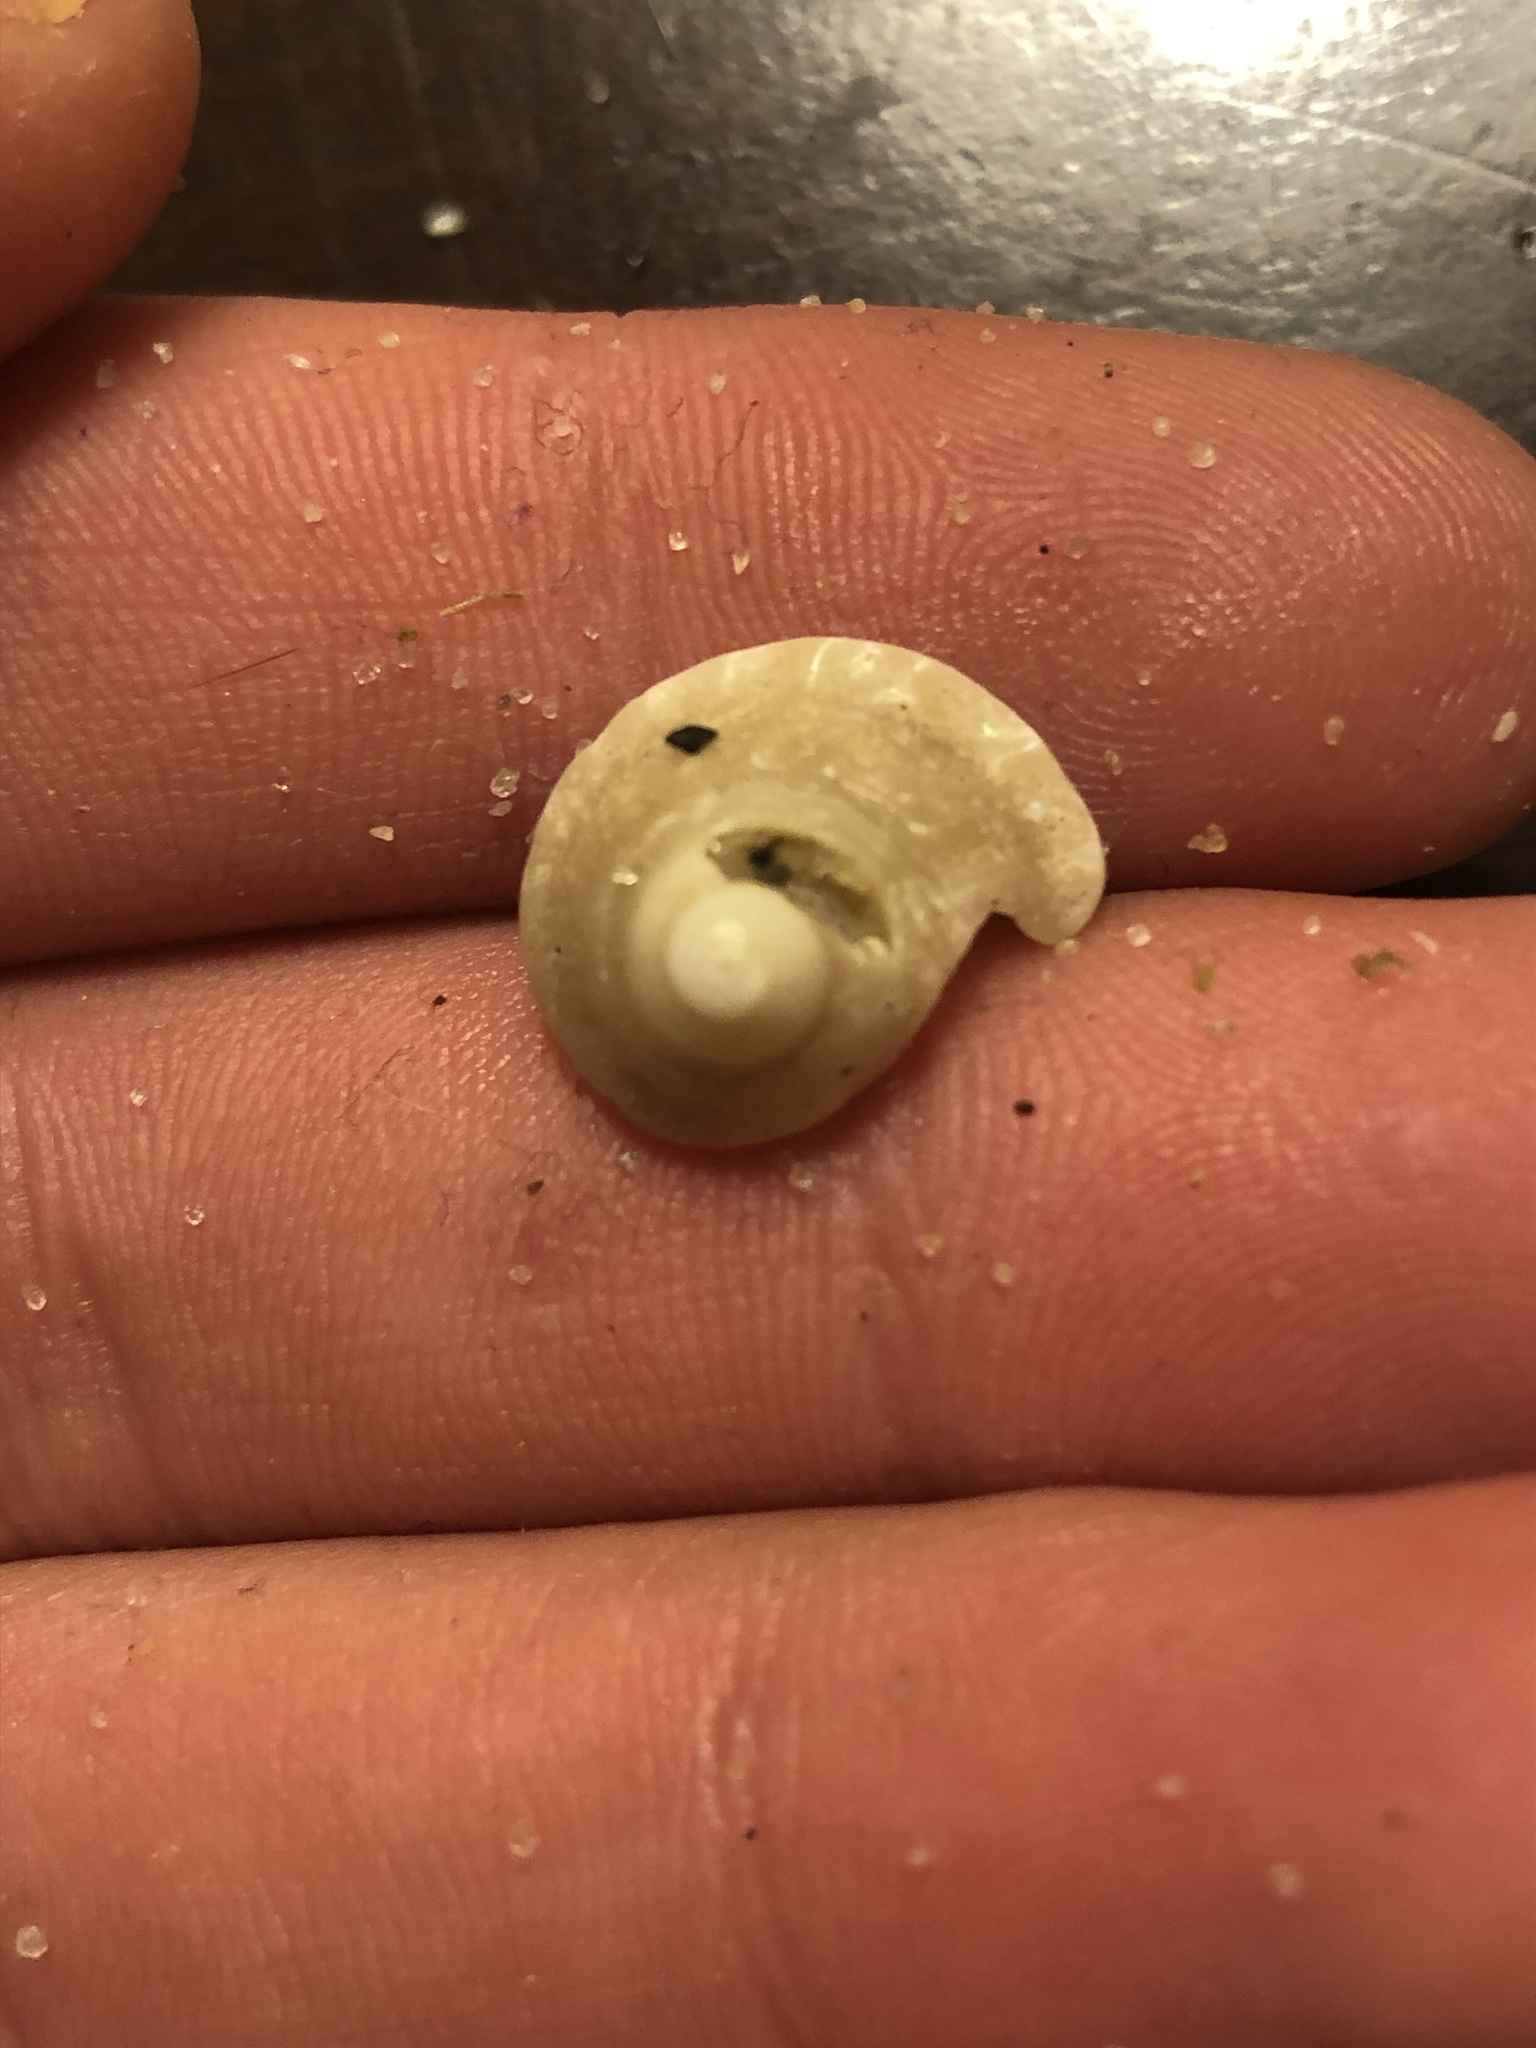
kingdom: Animalia
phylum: Mollusca
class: Gastropoda
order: Trochida
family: Turbinidae
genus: Megastraea
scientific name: Megastraea undosa
